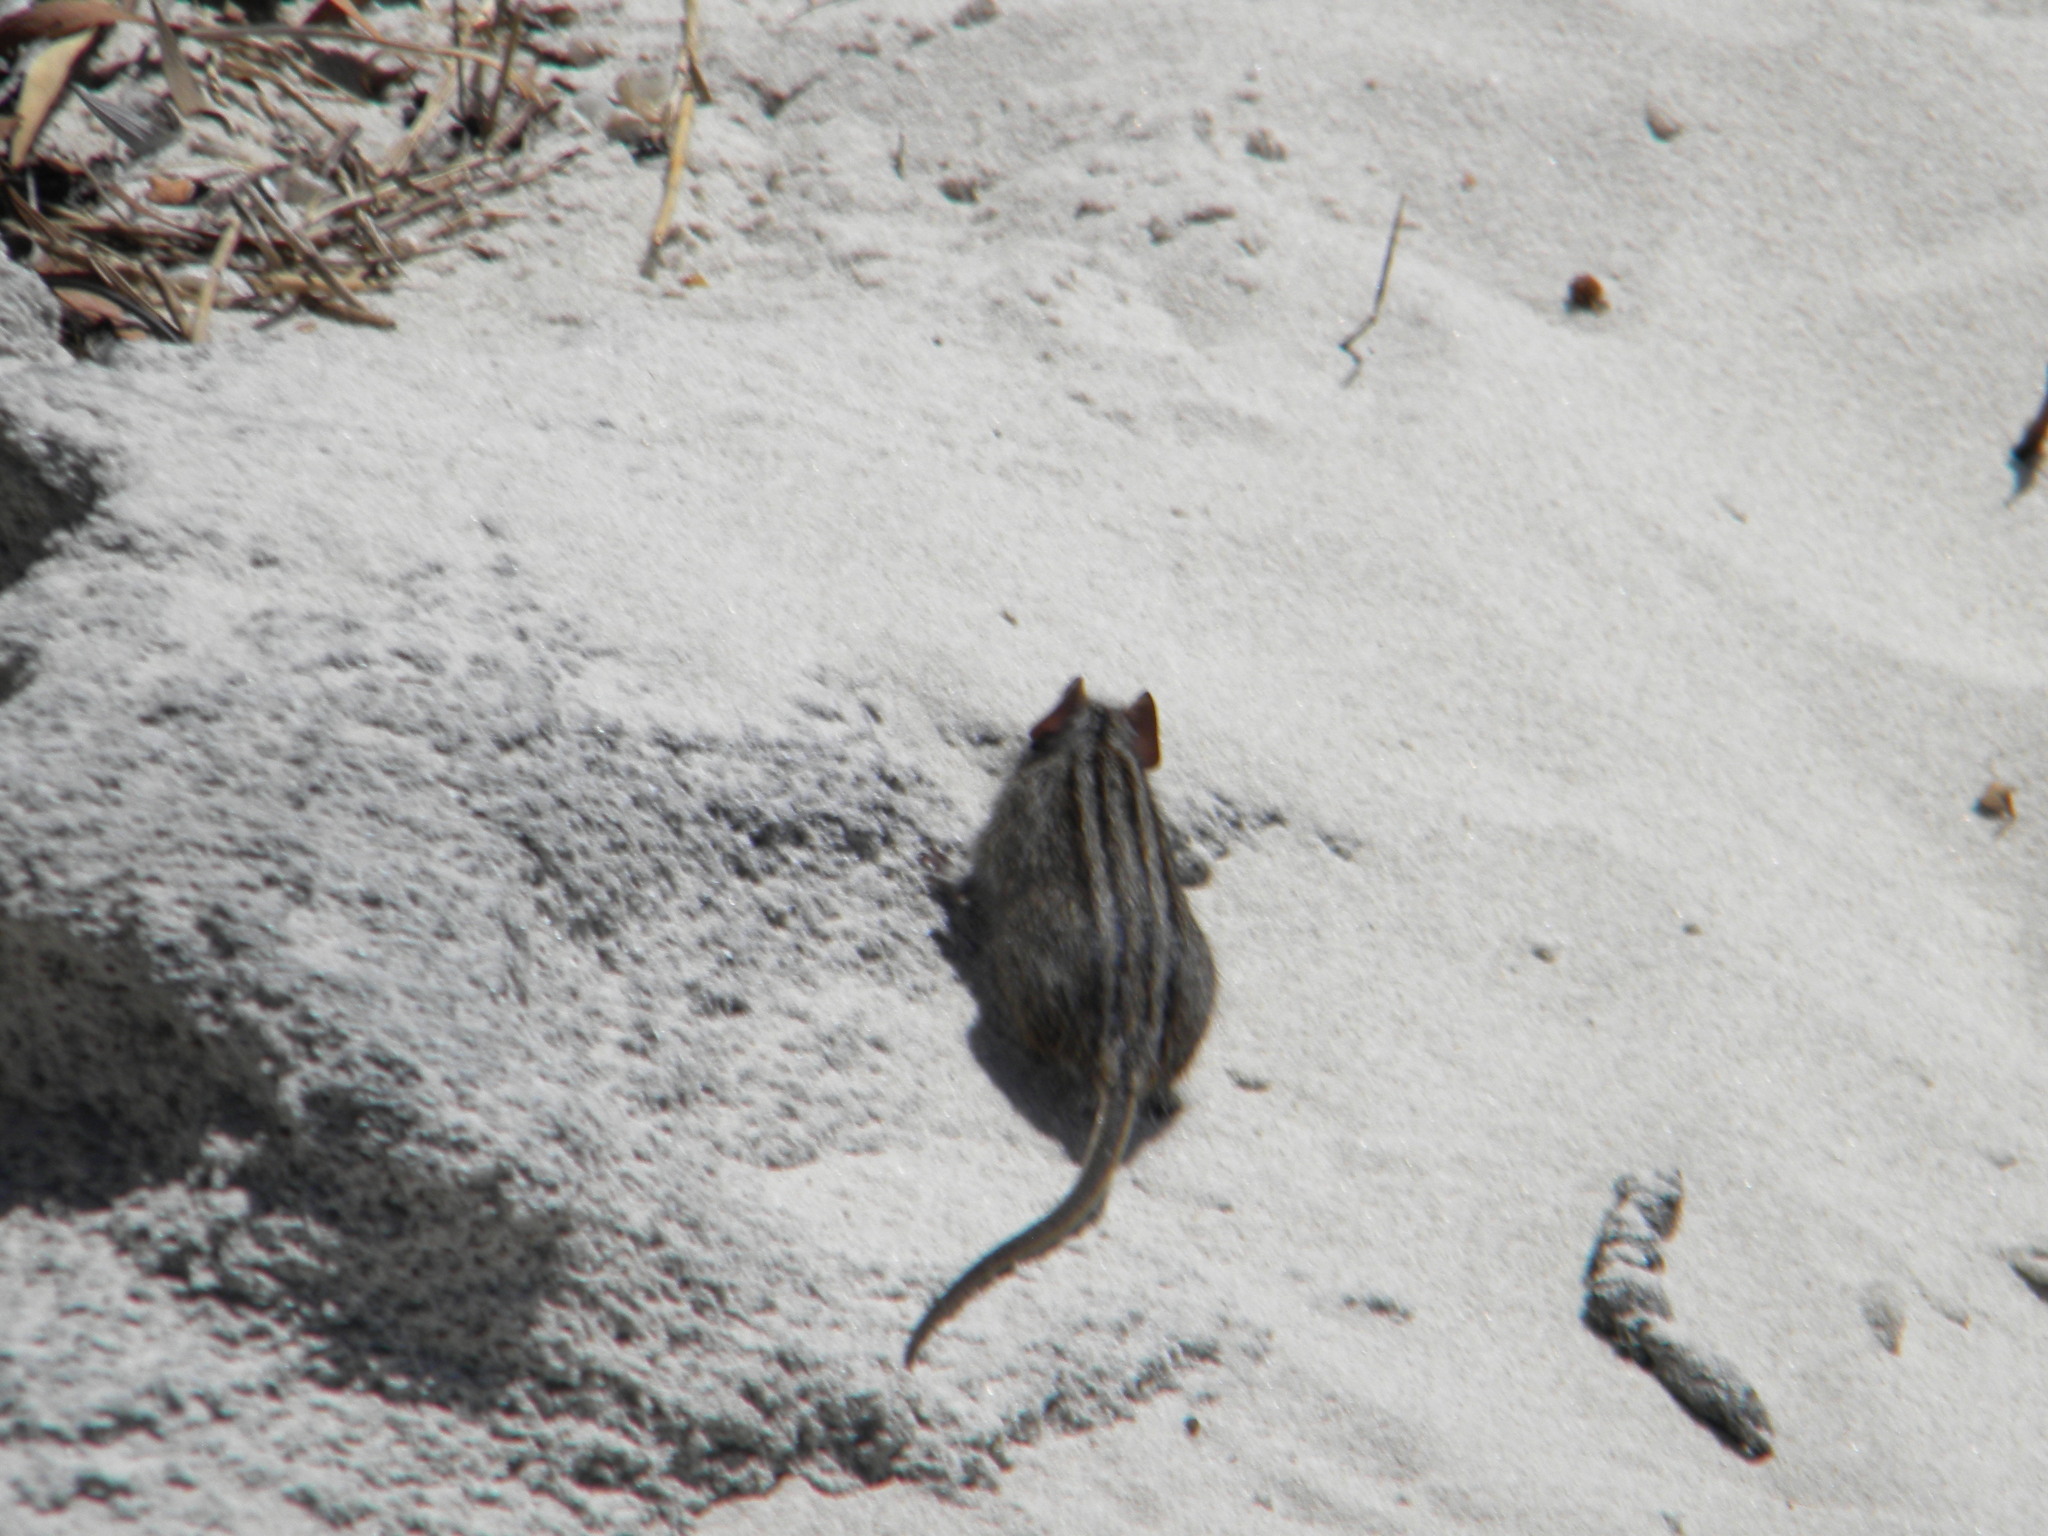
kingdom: Animalia
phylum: Chordata
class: Mammalia
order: Rodentia
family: Muridae
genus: Rhabdomys
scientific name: Rhabdomys pumilio
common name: Xeric four-striped grass rat
